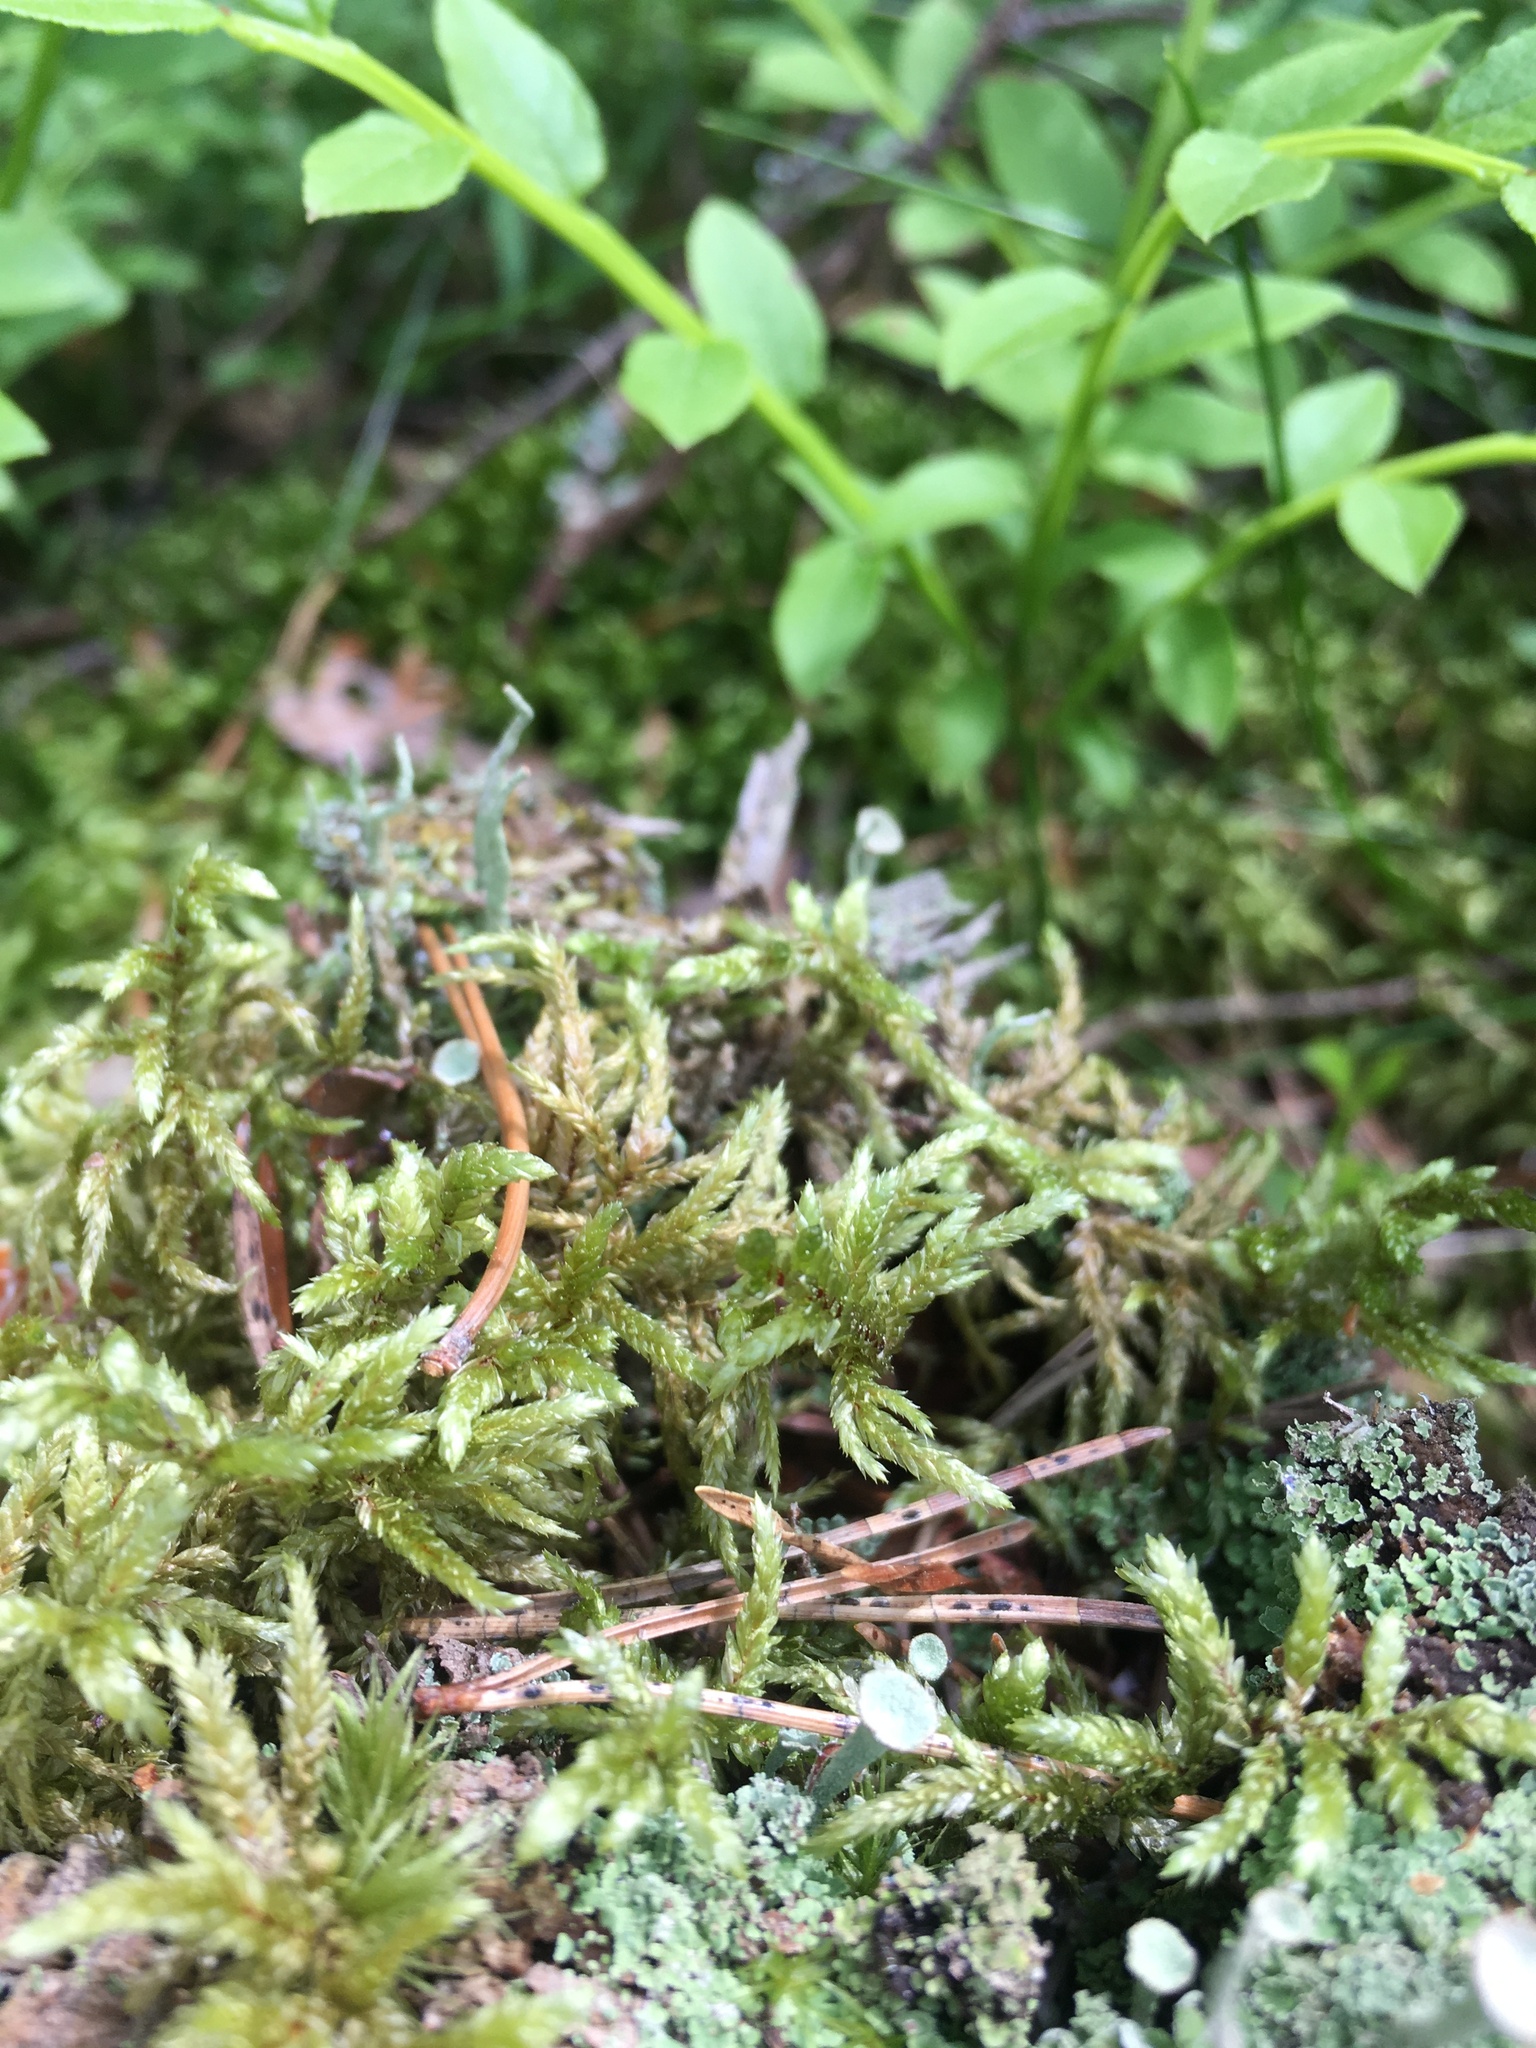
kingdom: Plantae
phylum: Bryophyta
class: Bryopsida
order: Hypnales
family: Hylocomiaceae
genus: Pleurozium
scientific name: Pleurozium schreberi
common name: Red-stemmed feather moss
